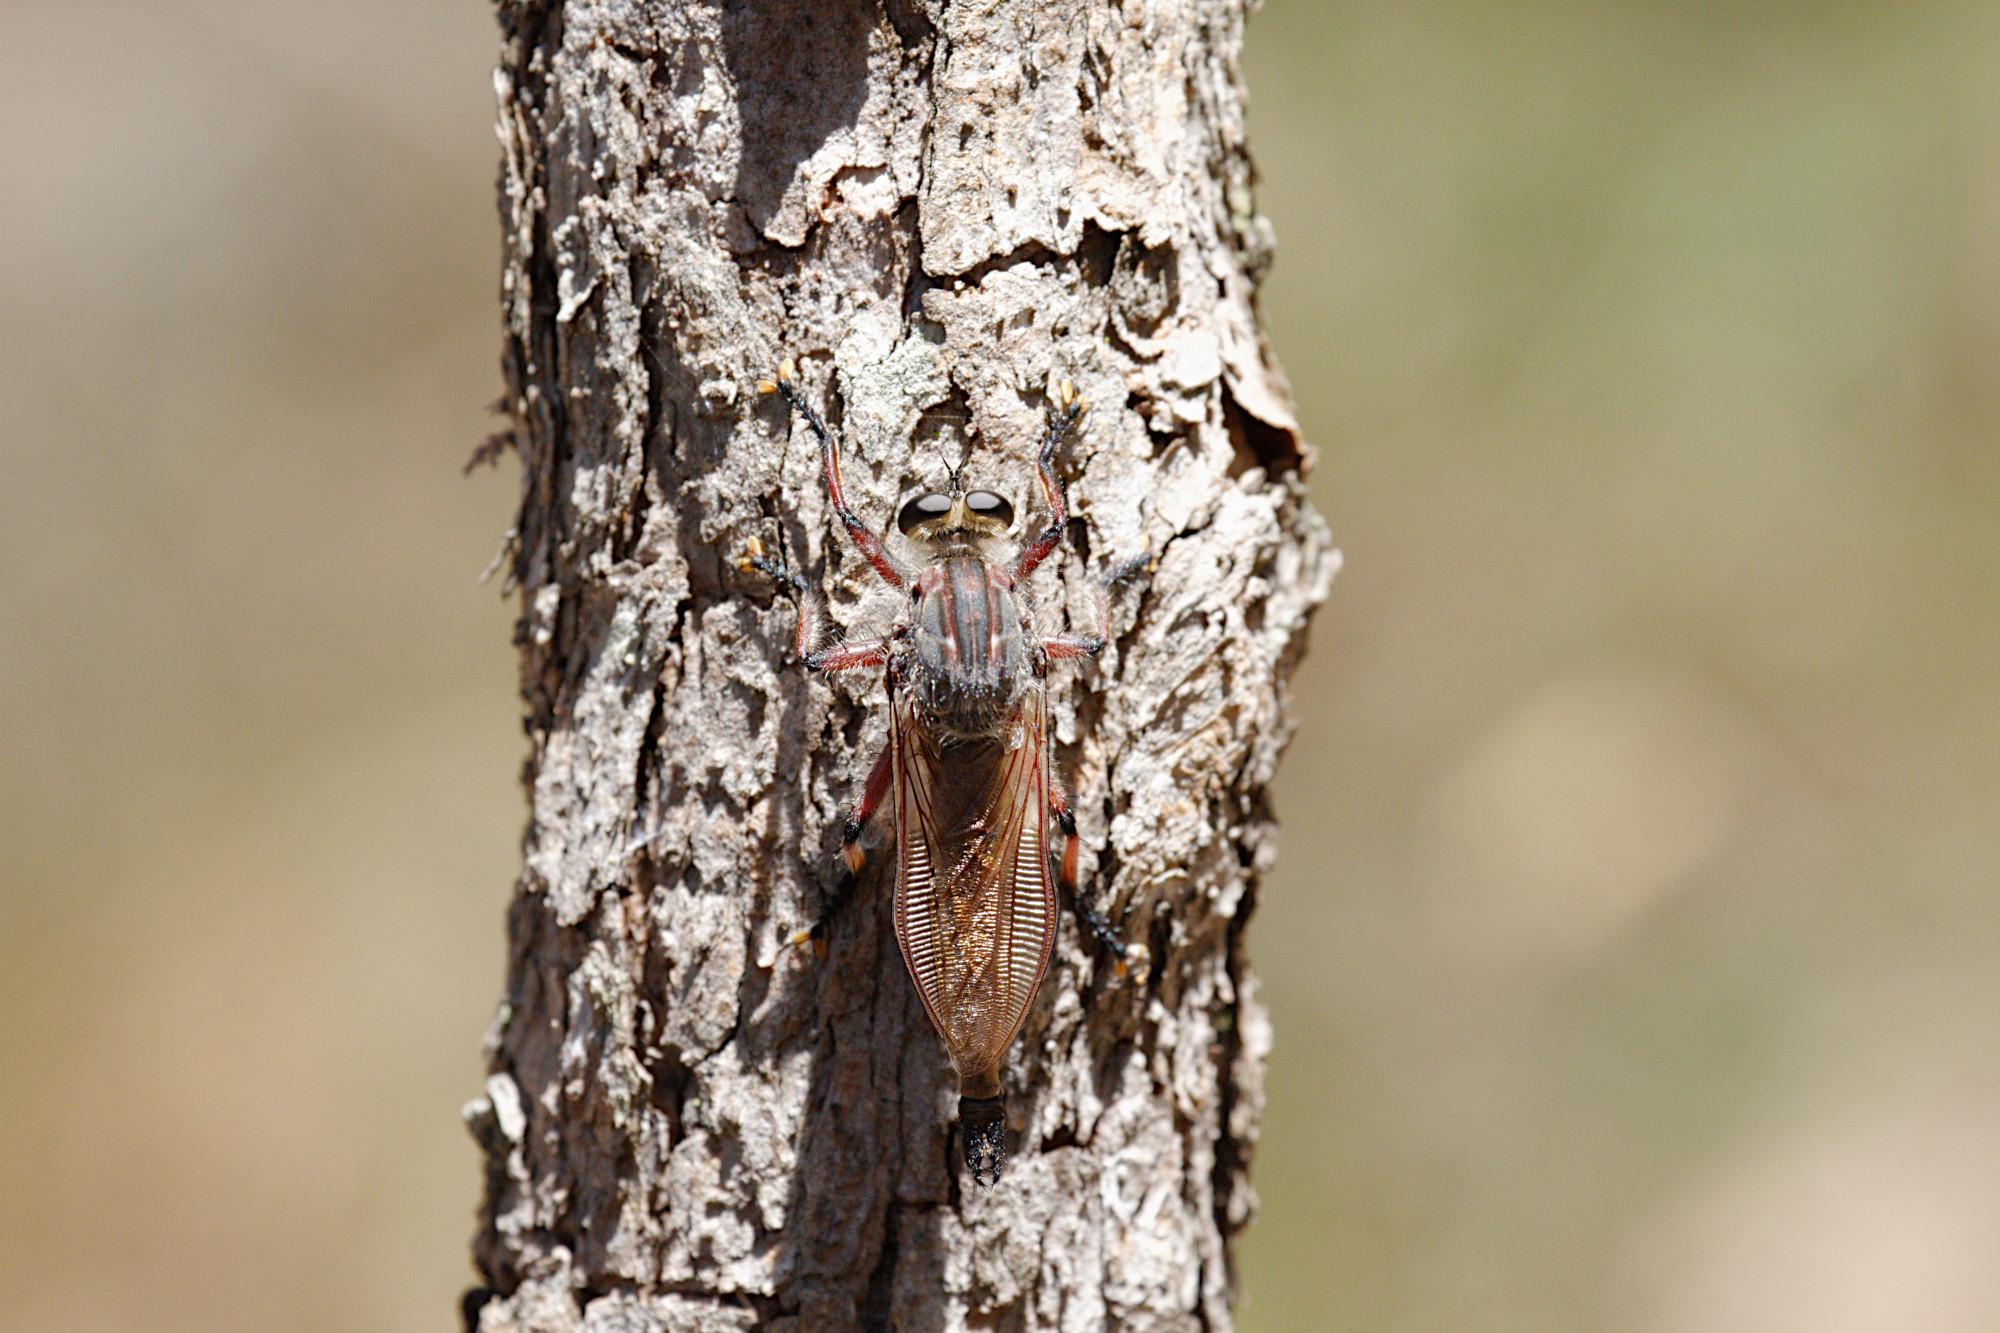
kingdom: Animalia
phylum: Arthropoda
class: Insecta
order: Diptera
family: Asilidae
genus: Neoaratus
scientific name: Neoaratus hercules
